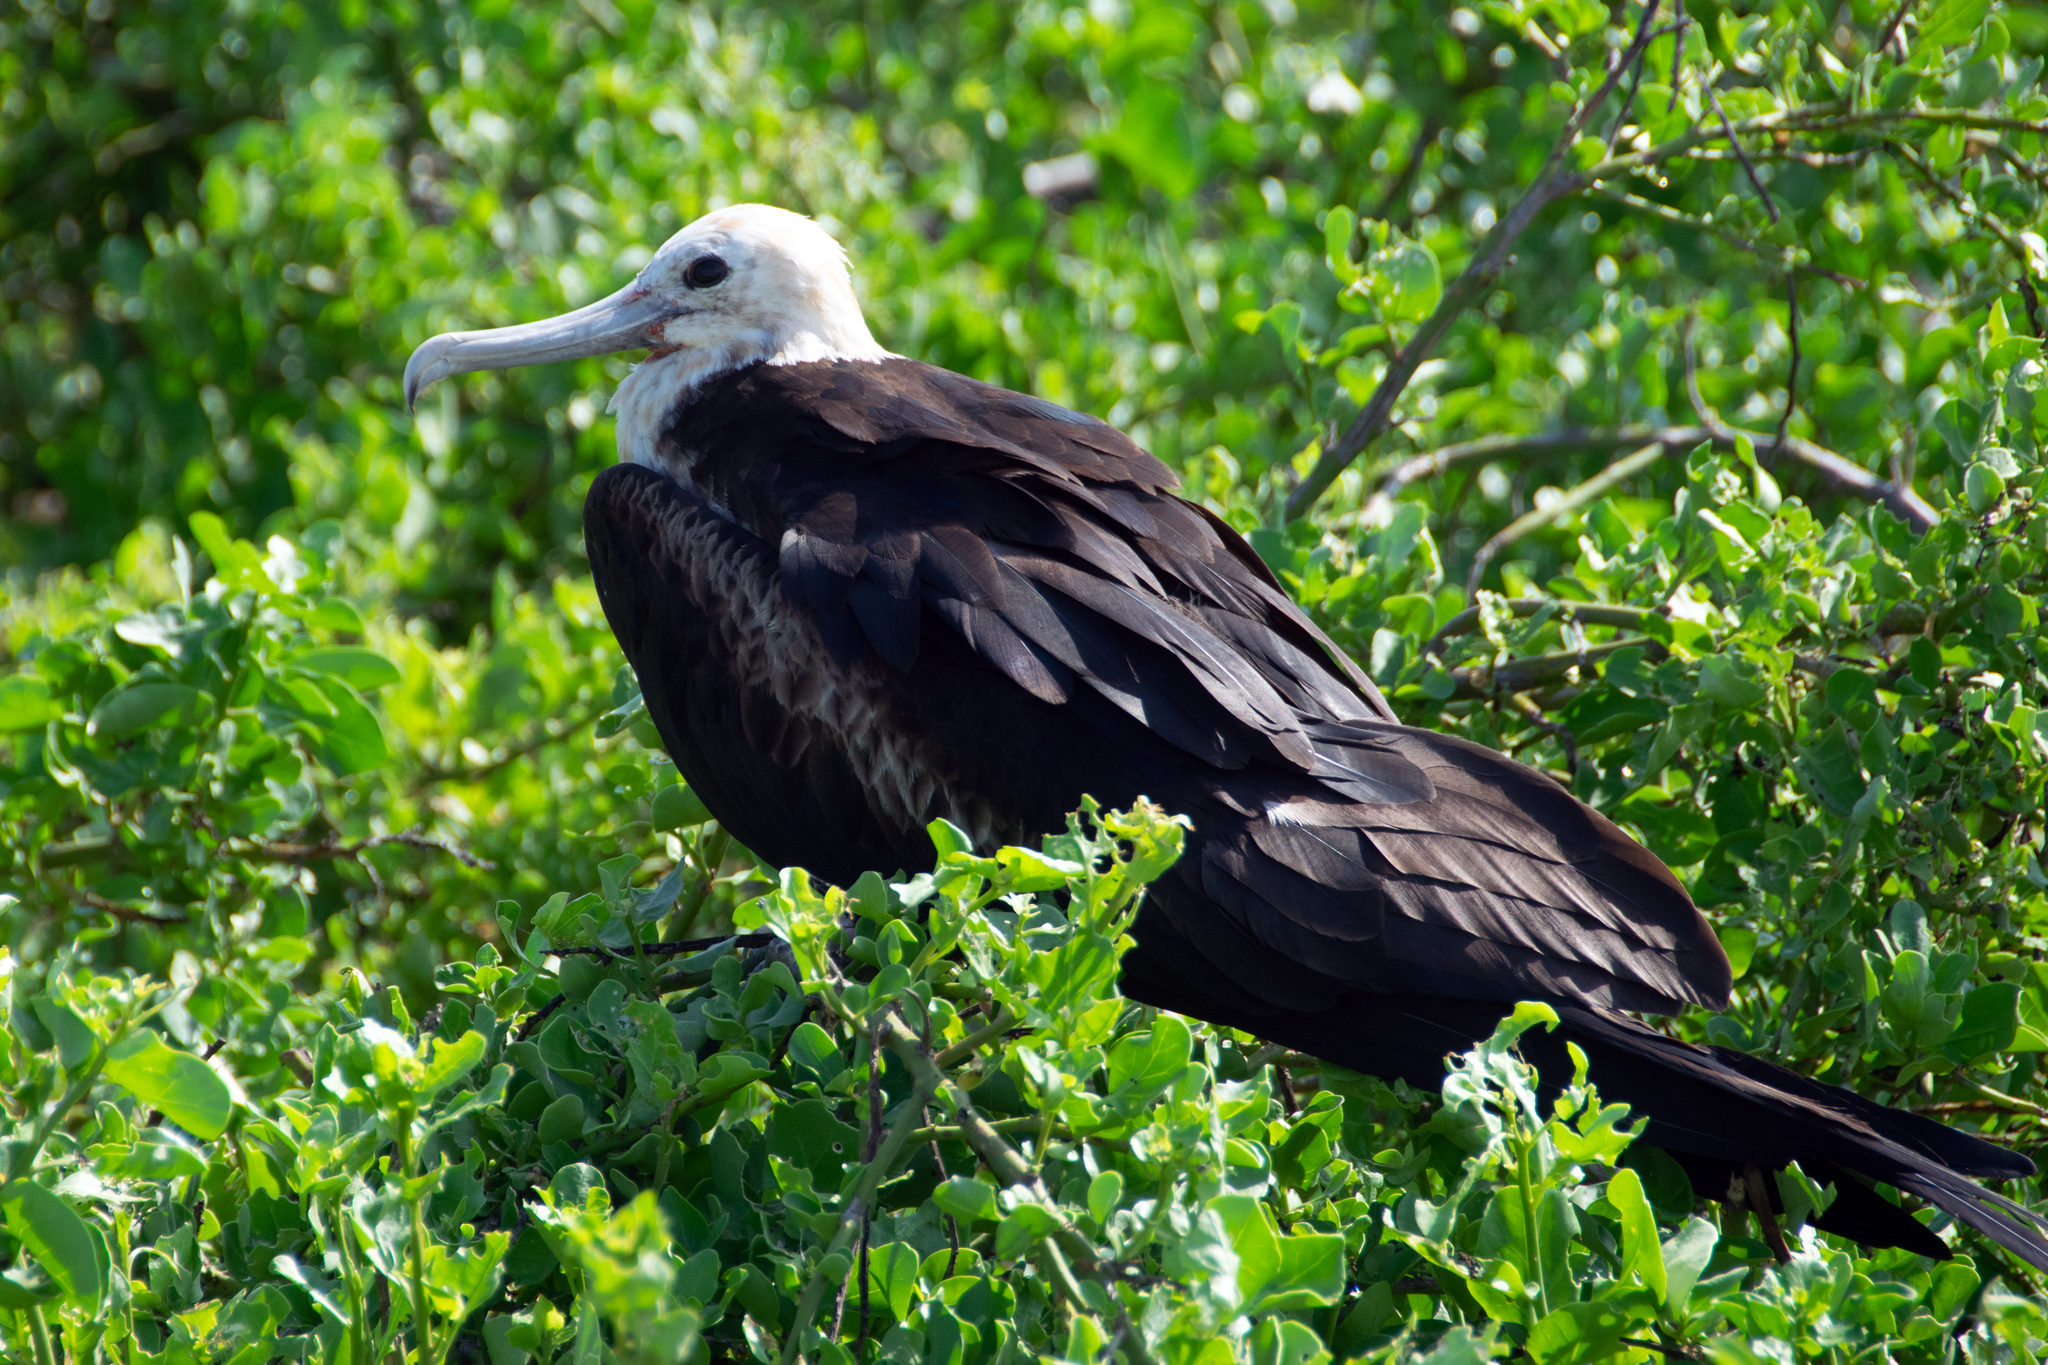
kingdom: Animalia
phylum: Chordata
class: Aves
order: Suliformes
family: Fregatidae
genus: Fregata
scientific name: Fregata minor
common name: Great frigatebird
